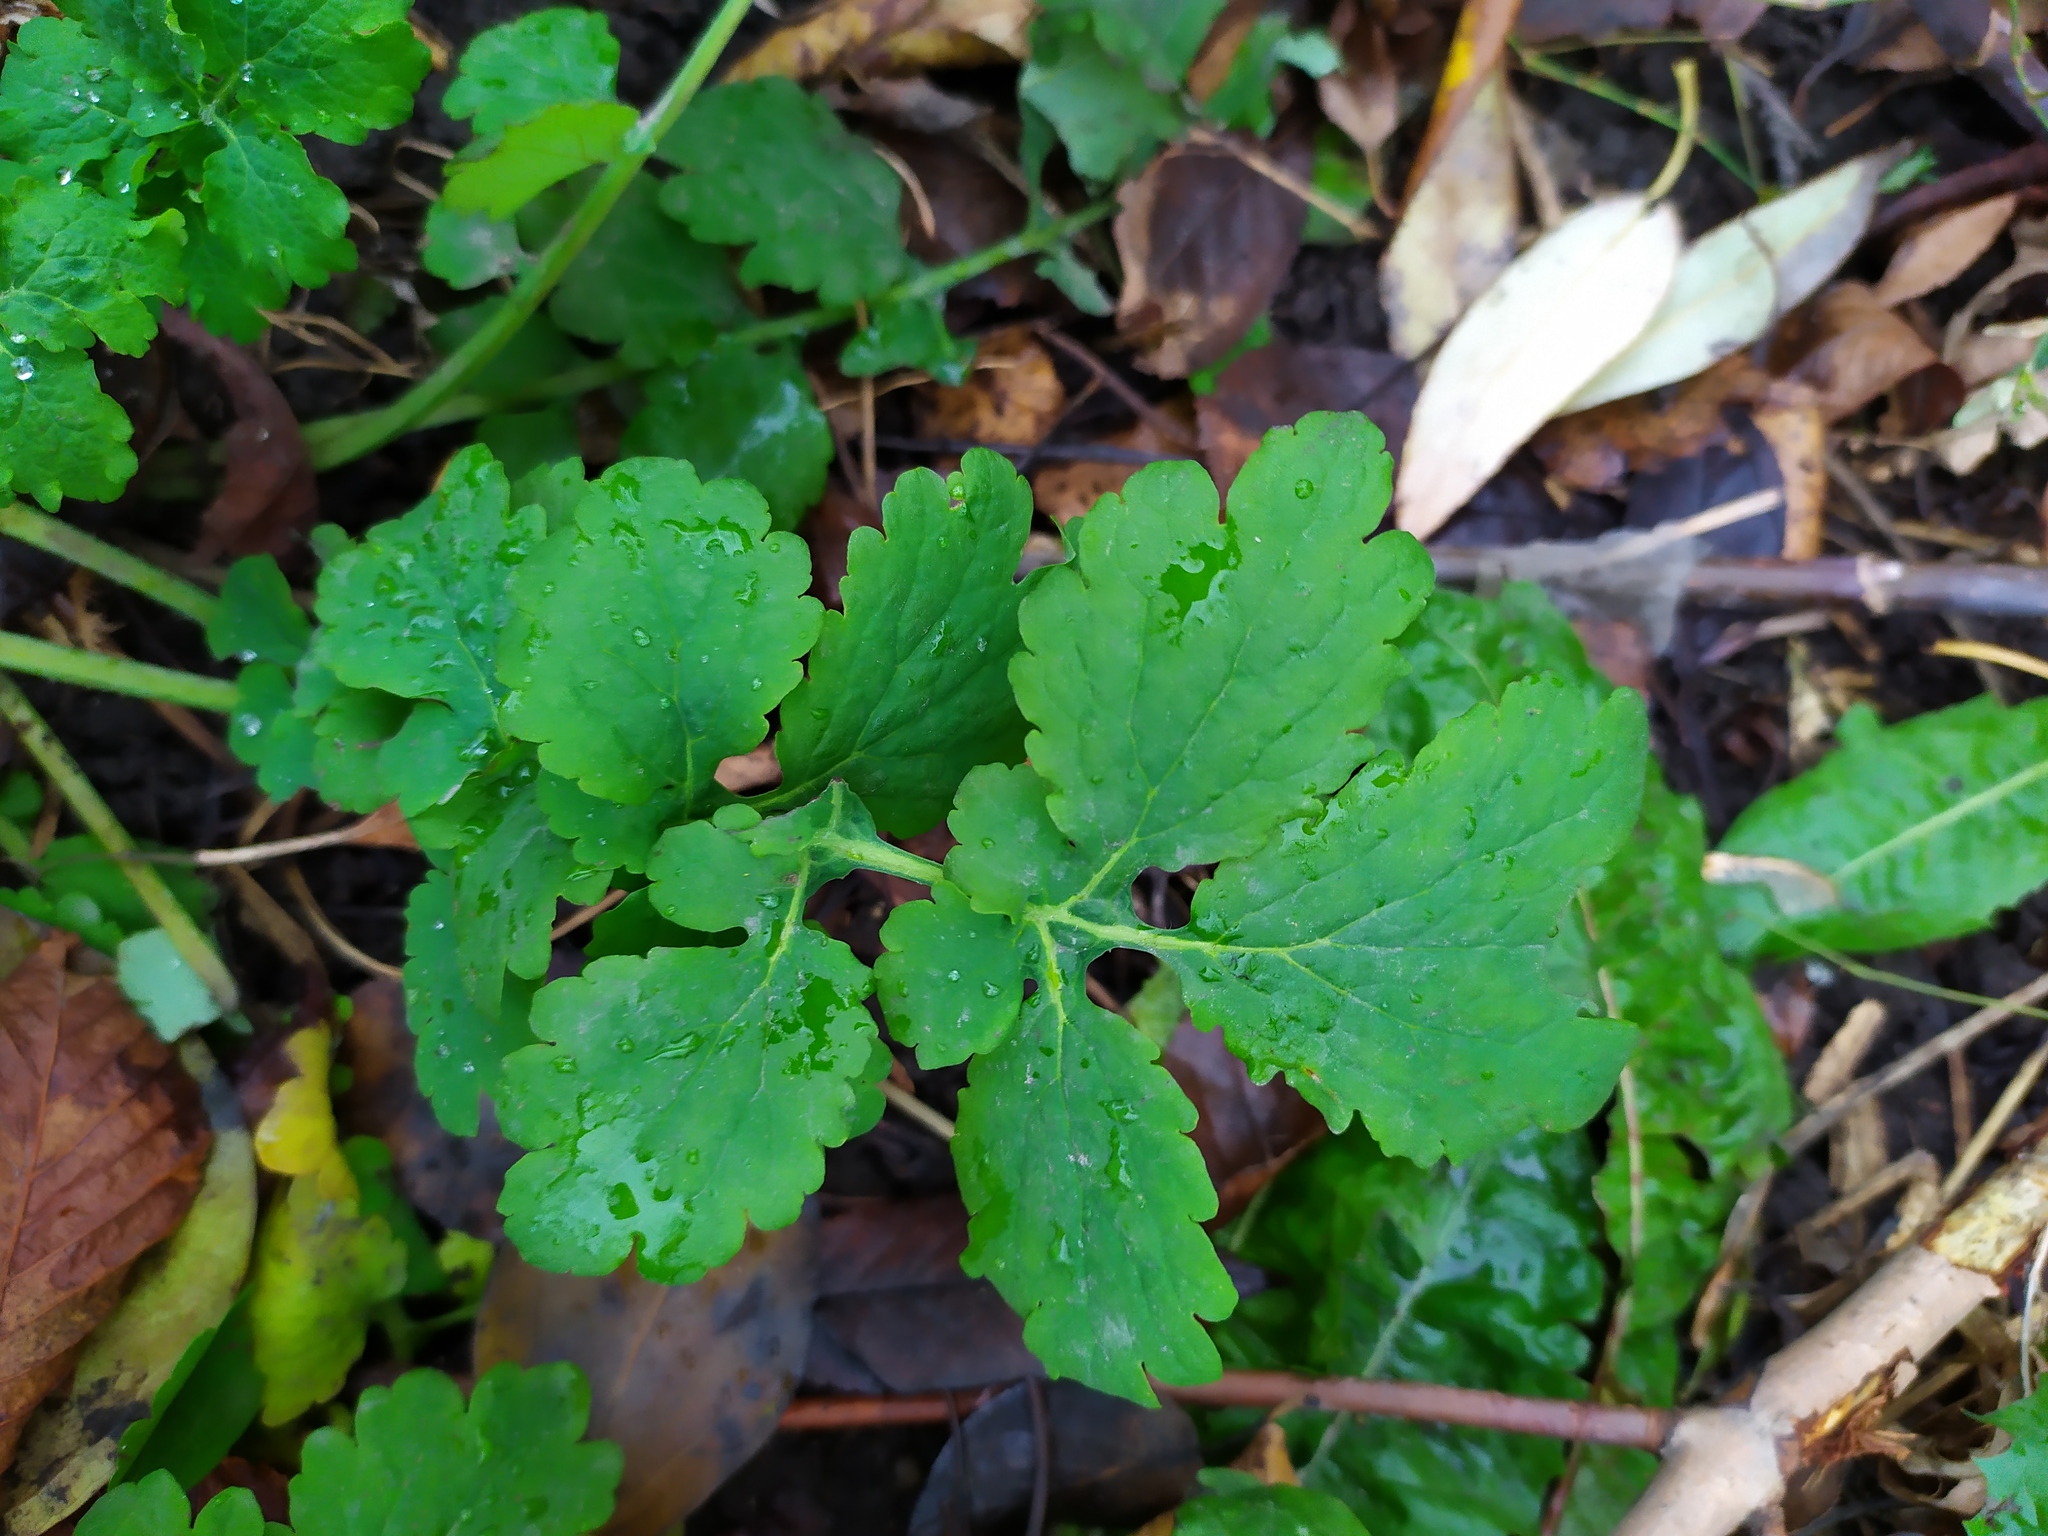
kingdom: Plantae
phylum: Tracheophyta
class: Magnoliopsida
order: Ranunculales
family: Papaveraceae
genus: Chelidonium
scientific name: Chelidonium majus
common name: Greater celandine
